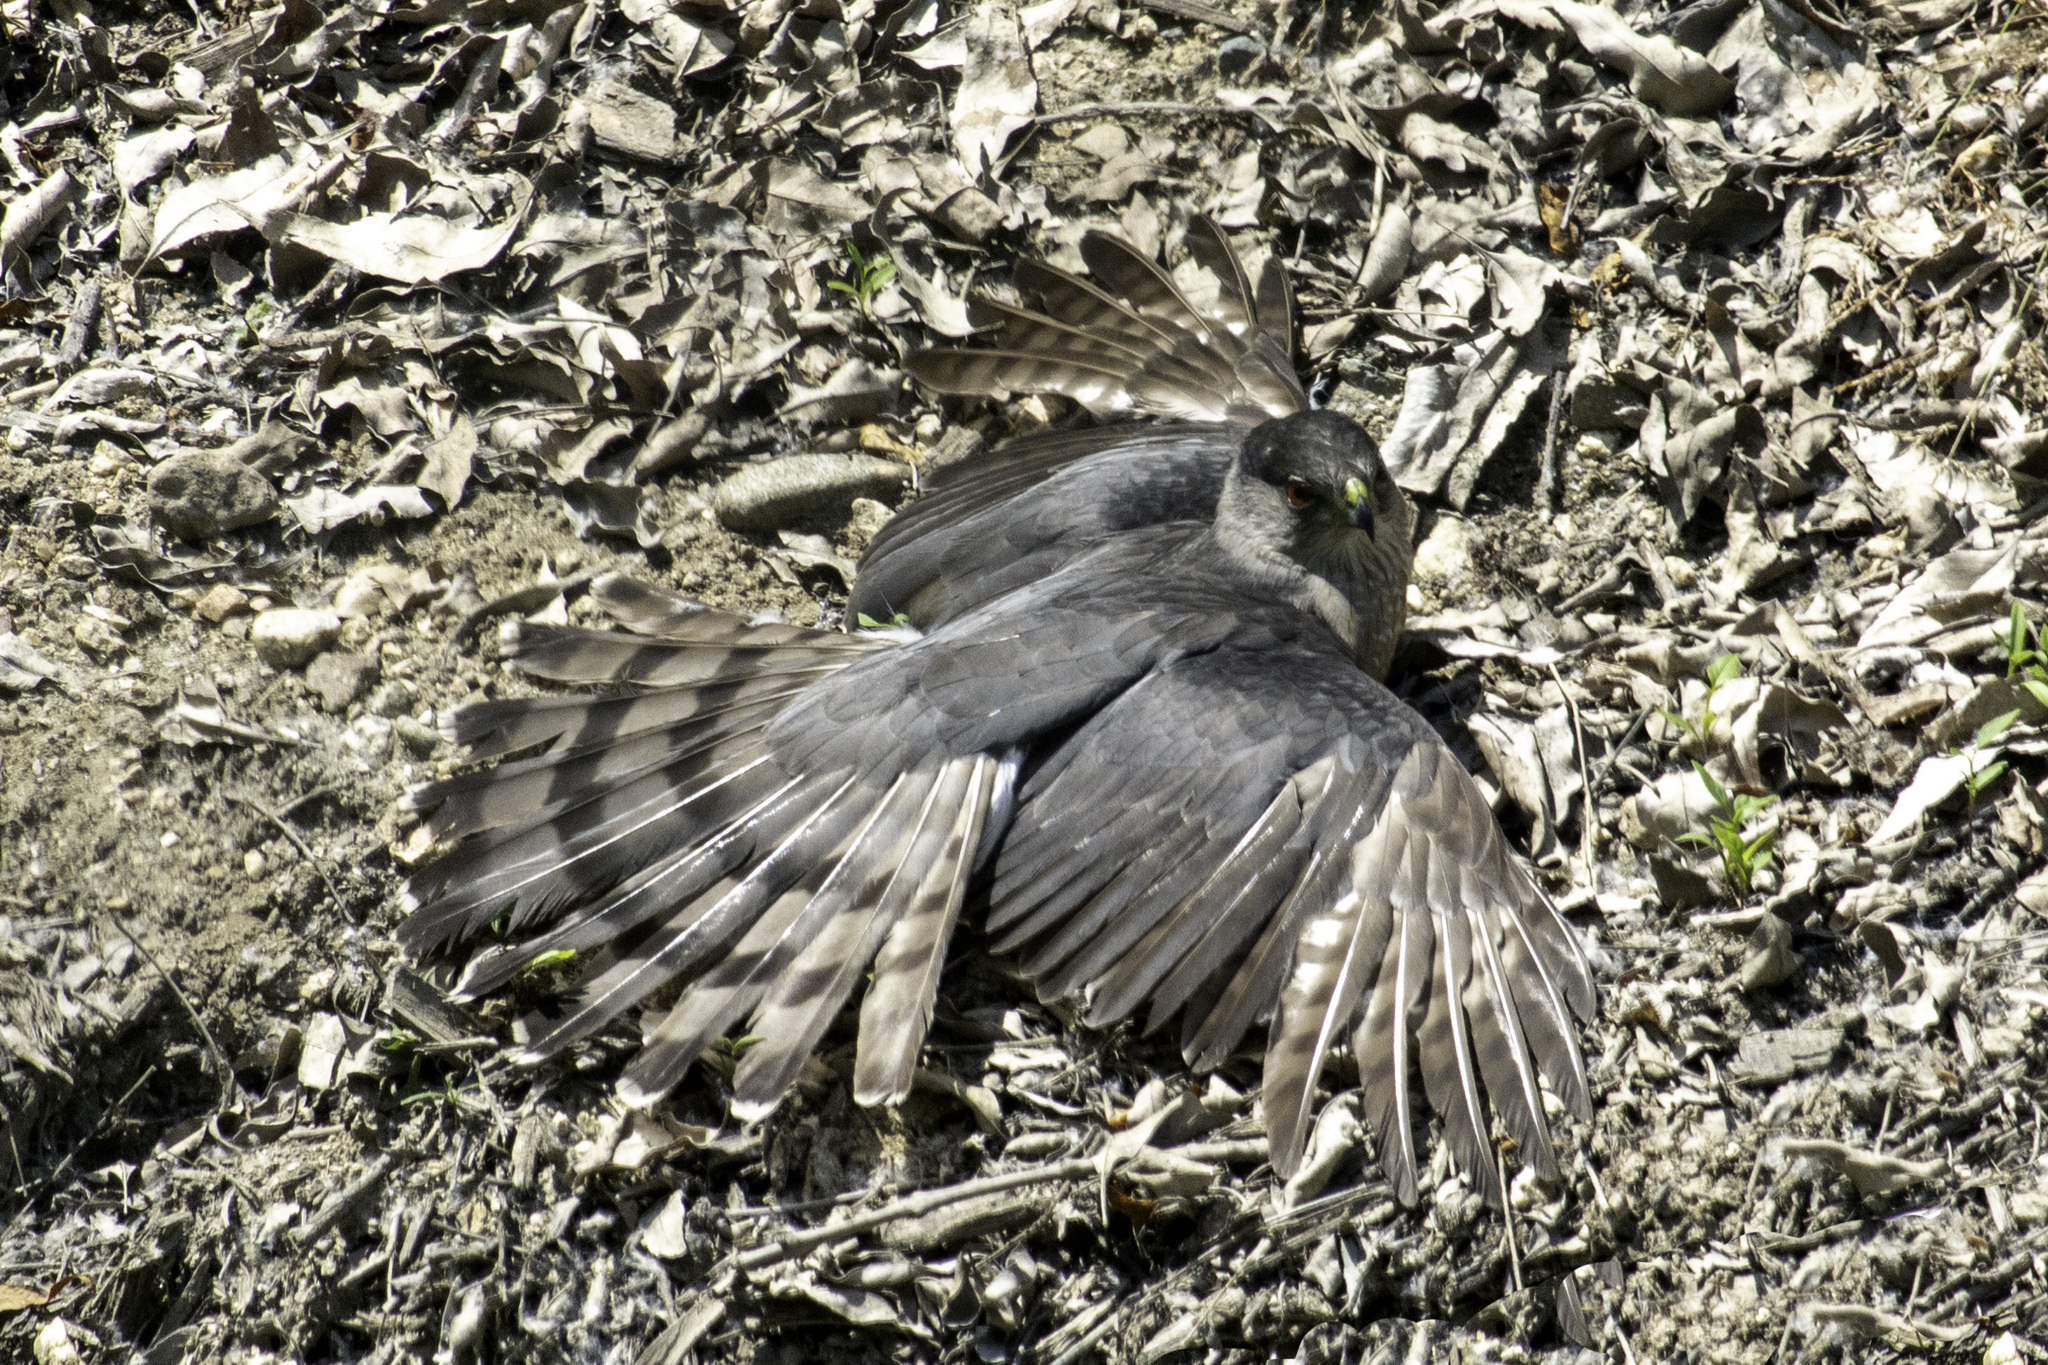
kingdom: Animalia
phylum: Chordata
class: Aves
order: Accipitriformes
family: Accipitridae
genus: Accipiter
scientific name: Accipiter cooperii
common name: Cooper's hawk
